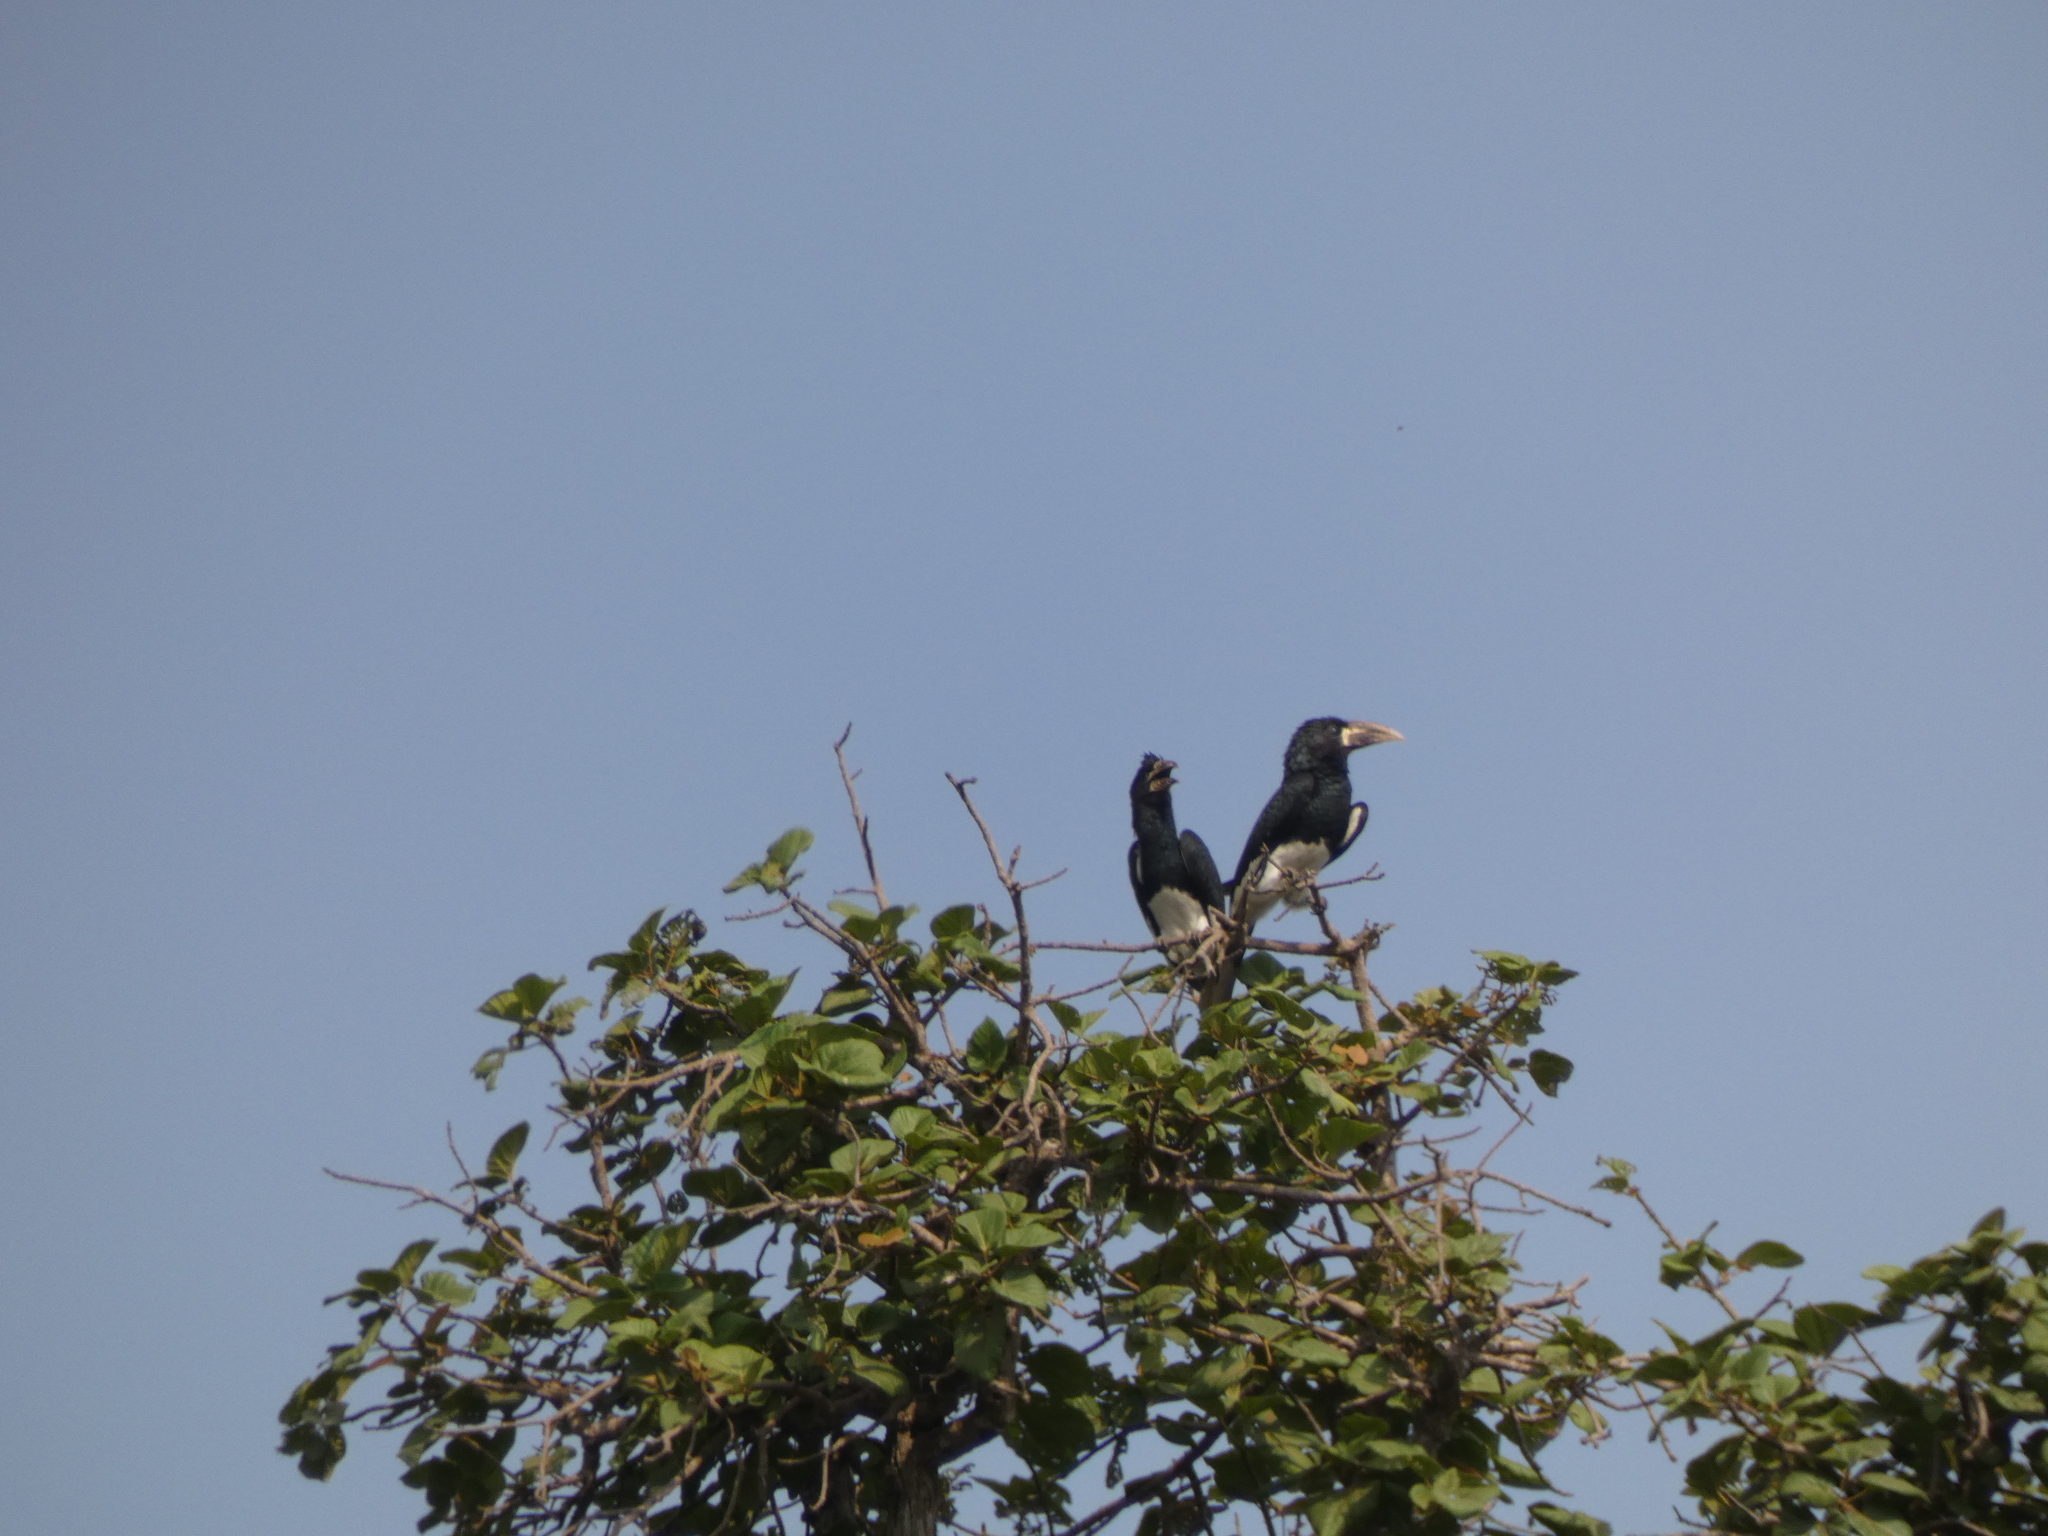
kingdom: Animalia
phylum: Chordata
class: Aves
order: Bucerotiformes
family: Bucerotidae
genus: Bycanistes
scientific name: Bycanistes fistulator
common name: Piping hornbill
